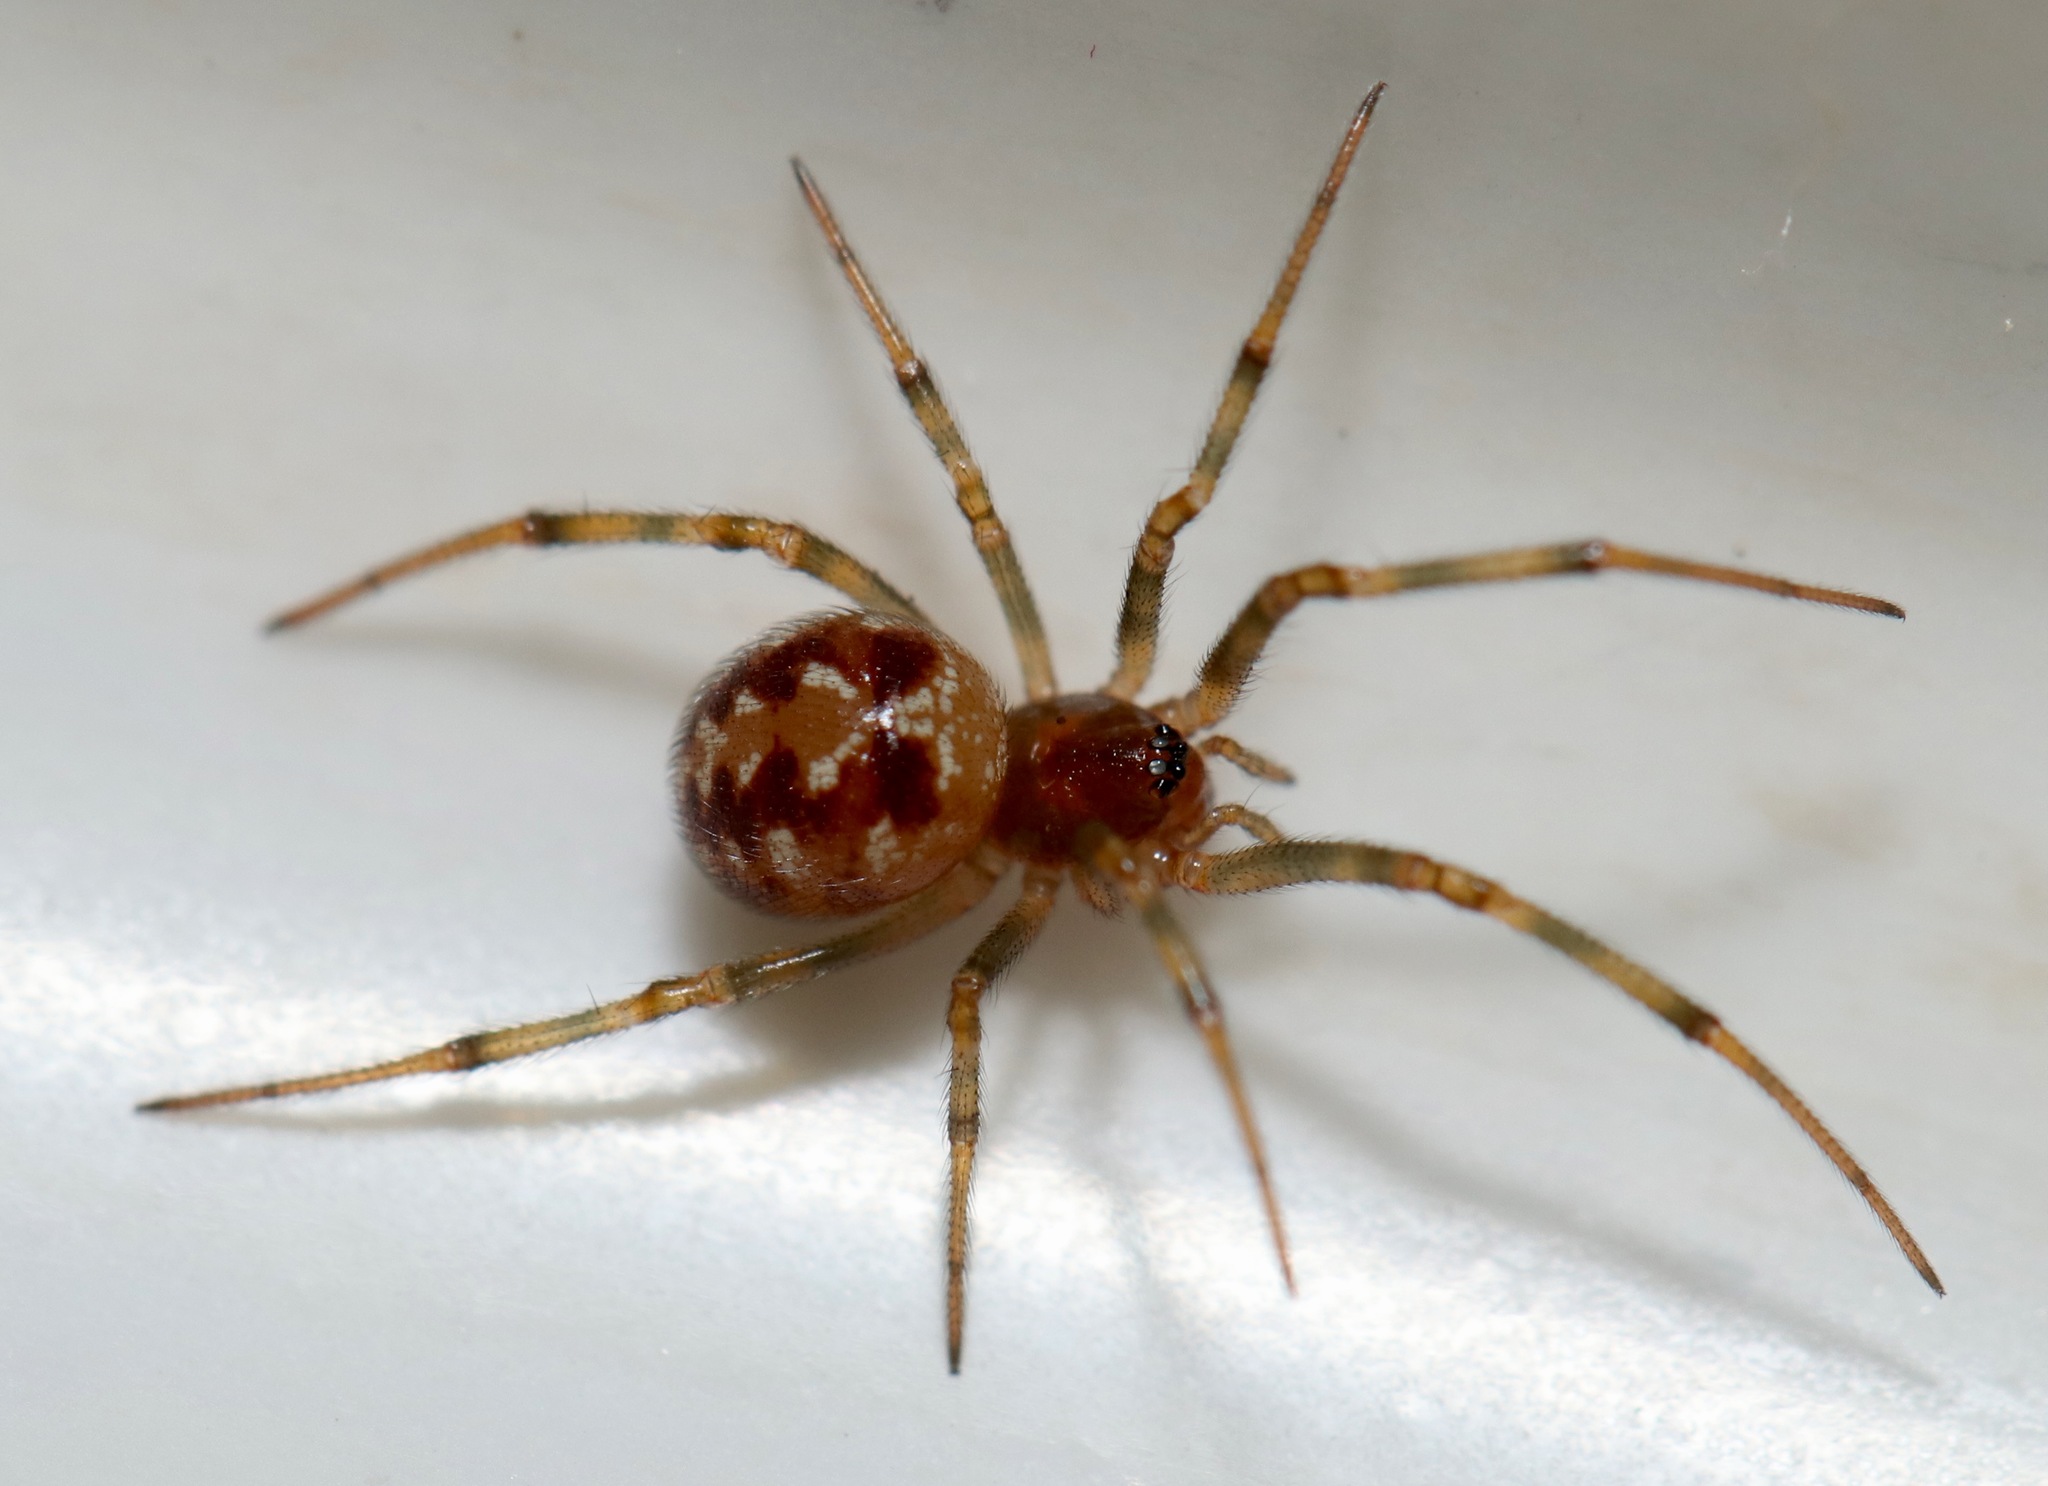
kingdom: Animalia
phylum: Arthropoda
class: Arachnida
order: Araneae
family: Theridiidae
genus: Steatoda
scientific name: Steatoda triangulosa
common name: Triangulate bud spider
